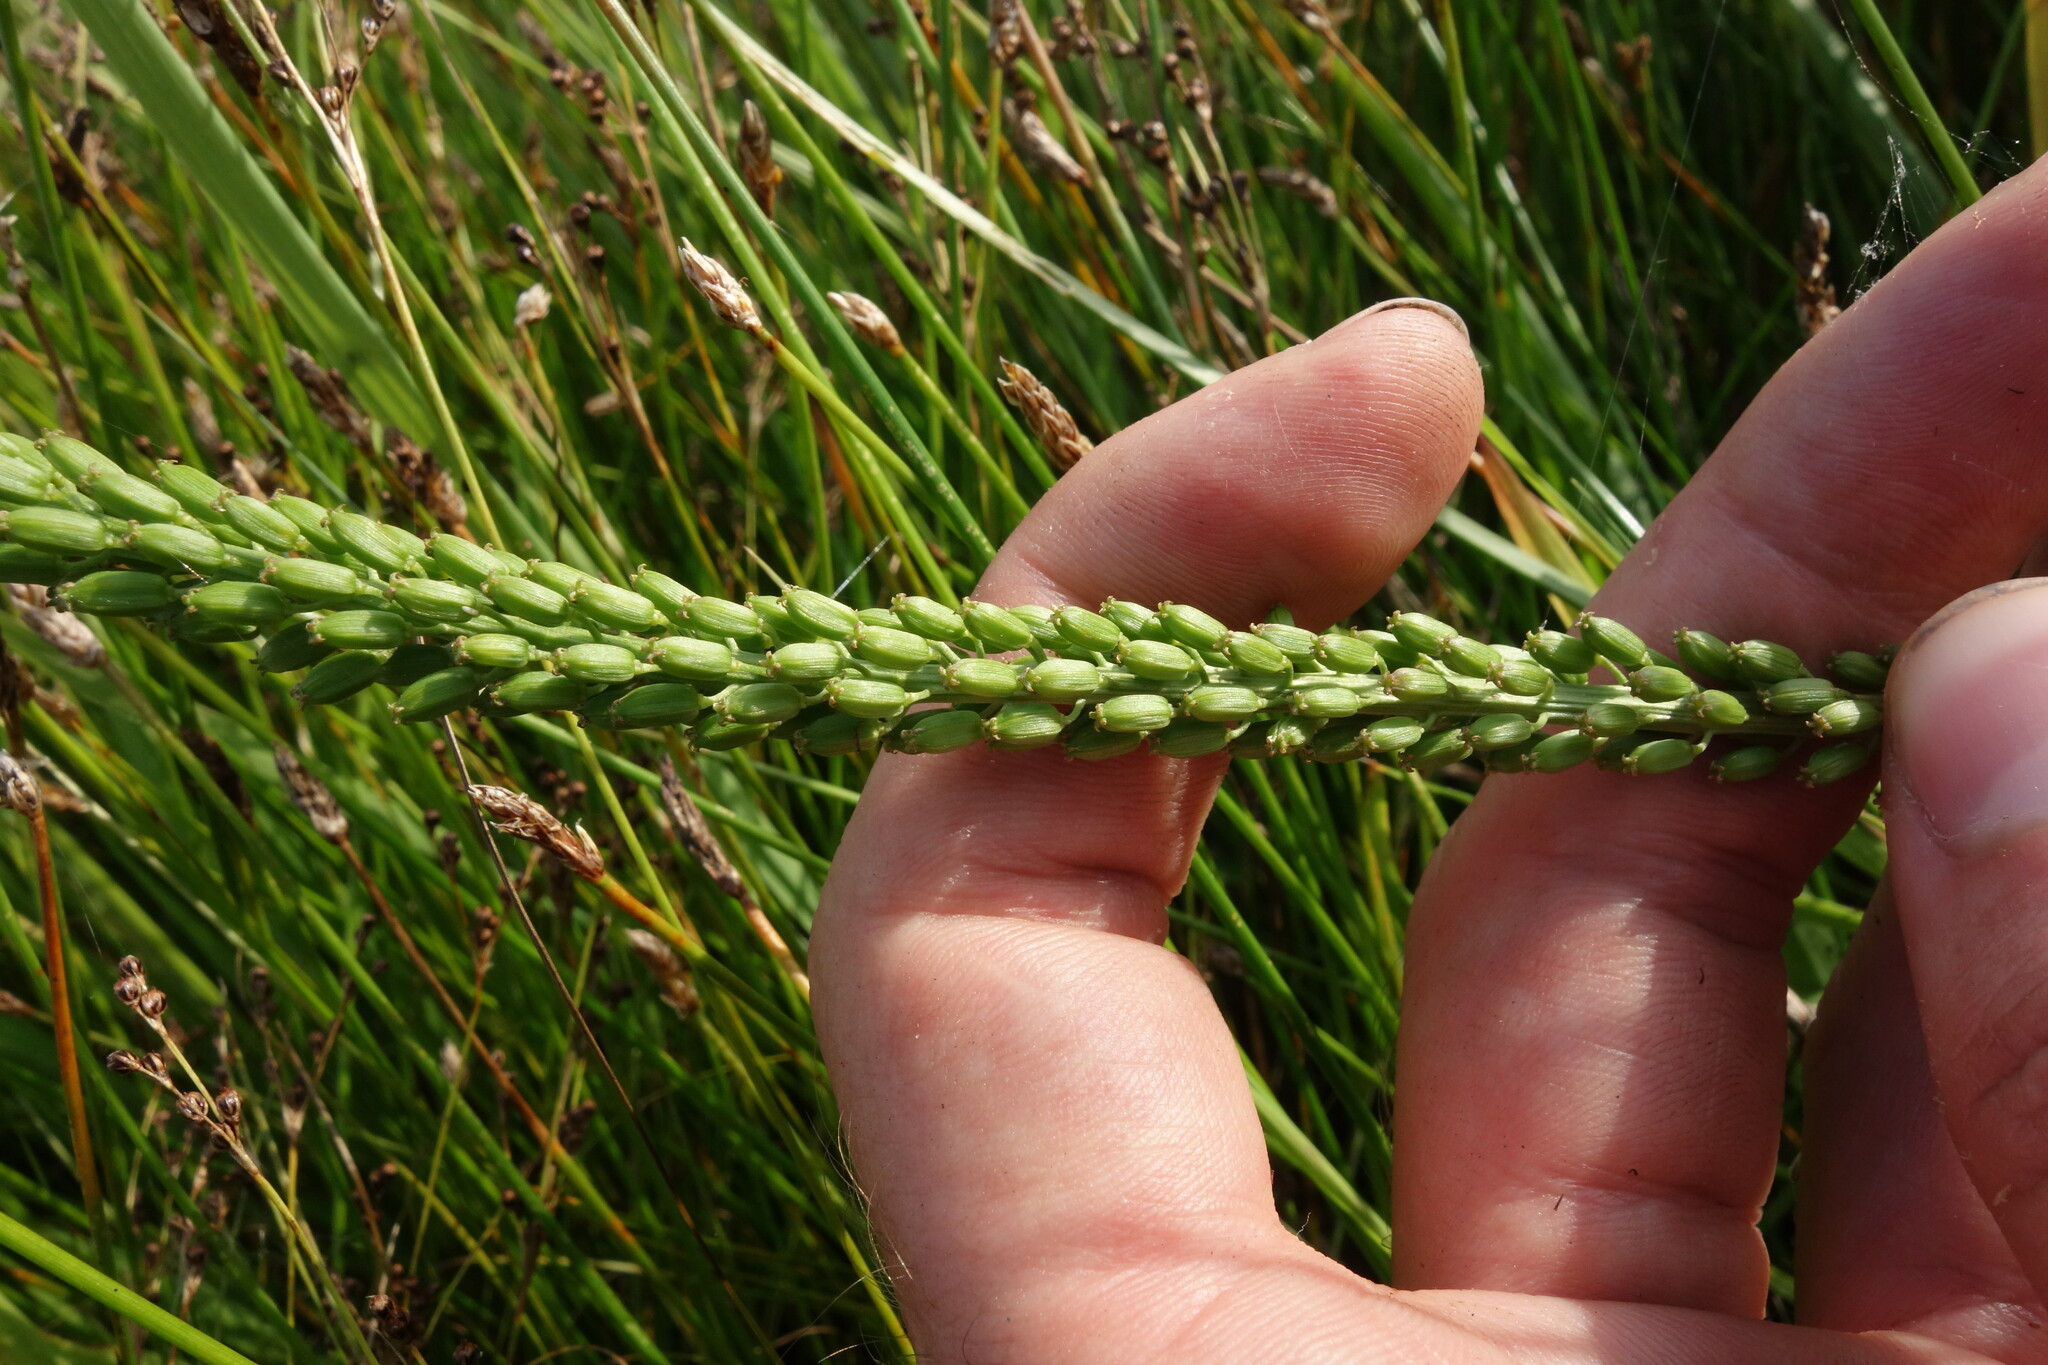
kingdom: Plantae
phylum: Tracheophyta
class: Liliopsida
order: Alismatales
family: Juncaginaceae
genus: Triglochin
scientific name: Triglochin maritima
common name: Sea arrowgrass
